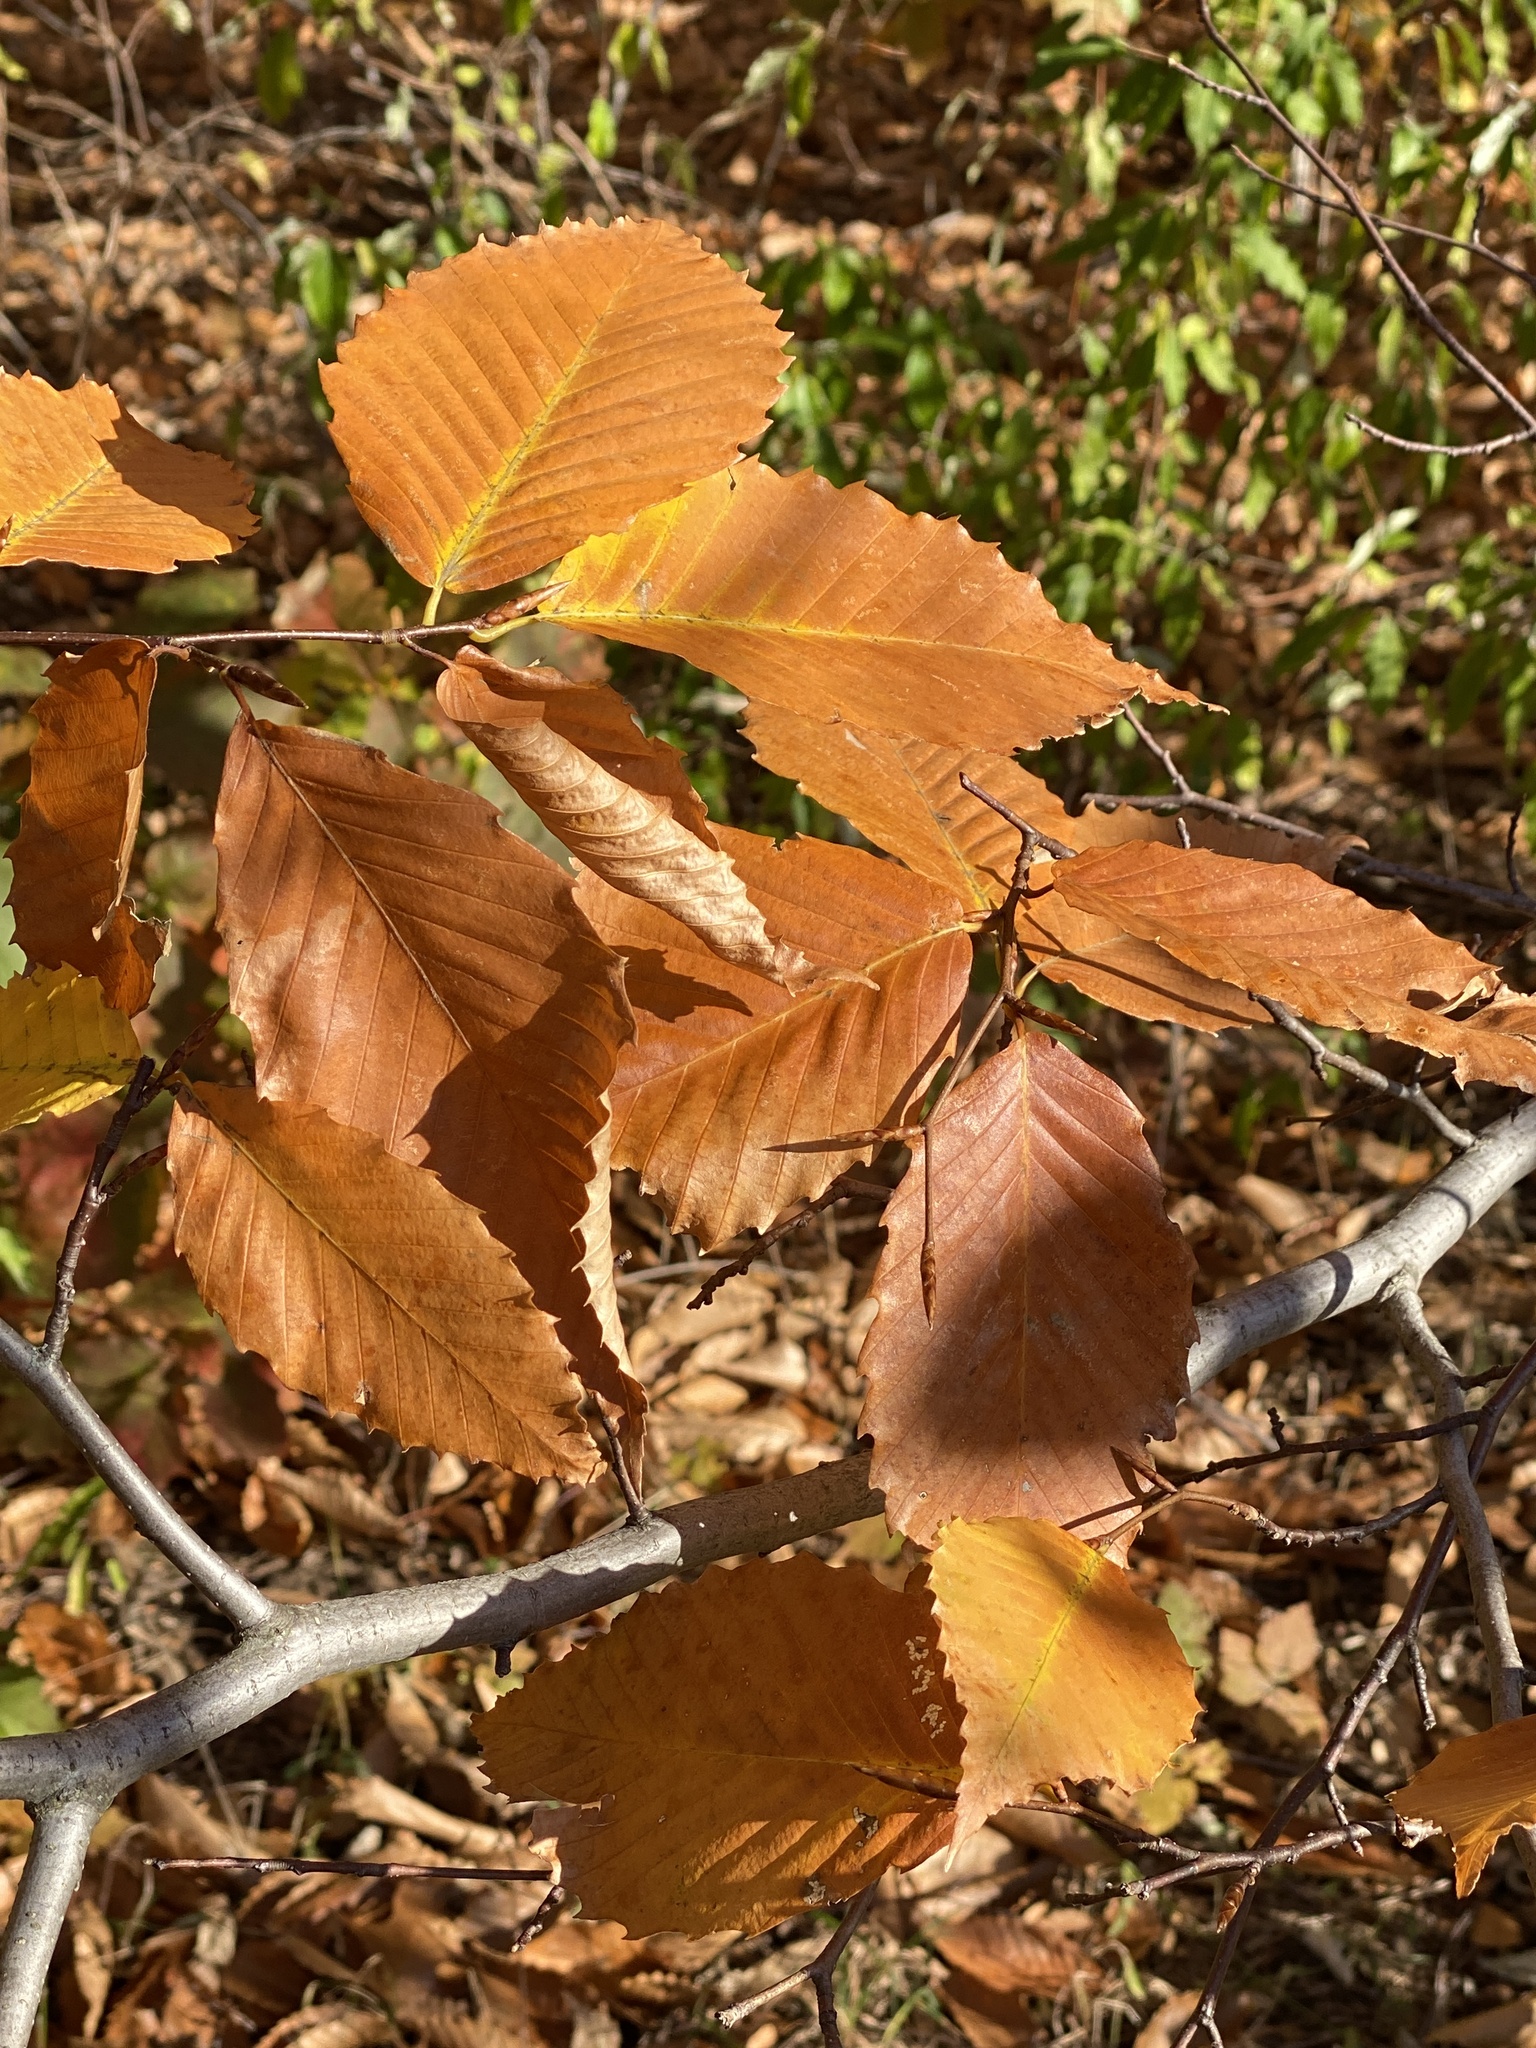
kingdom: Plantae
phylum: Tracheophyta
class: Magnoliopsida
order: Fagales
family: Fagaceae
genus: Fagus
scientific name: Fagus grandifolia
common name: American beech
